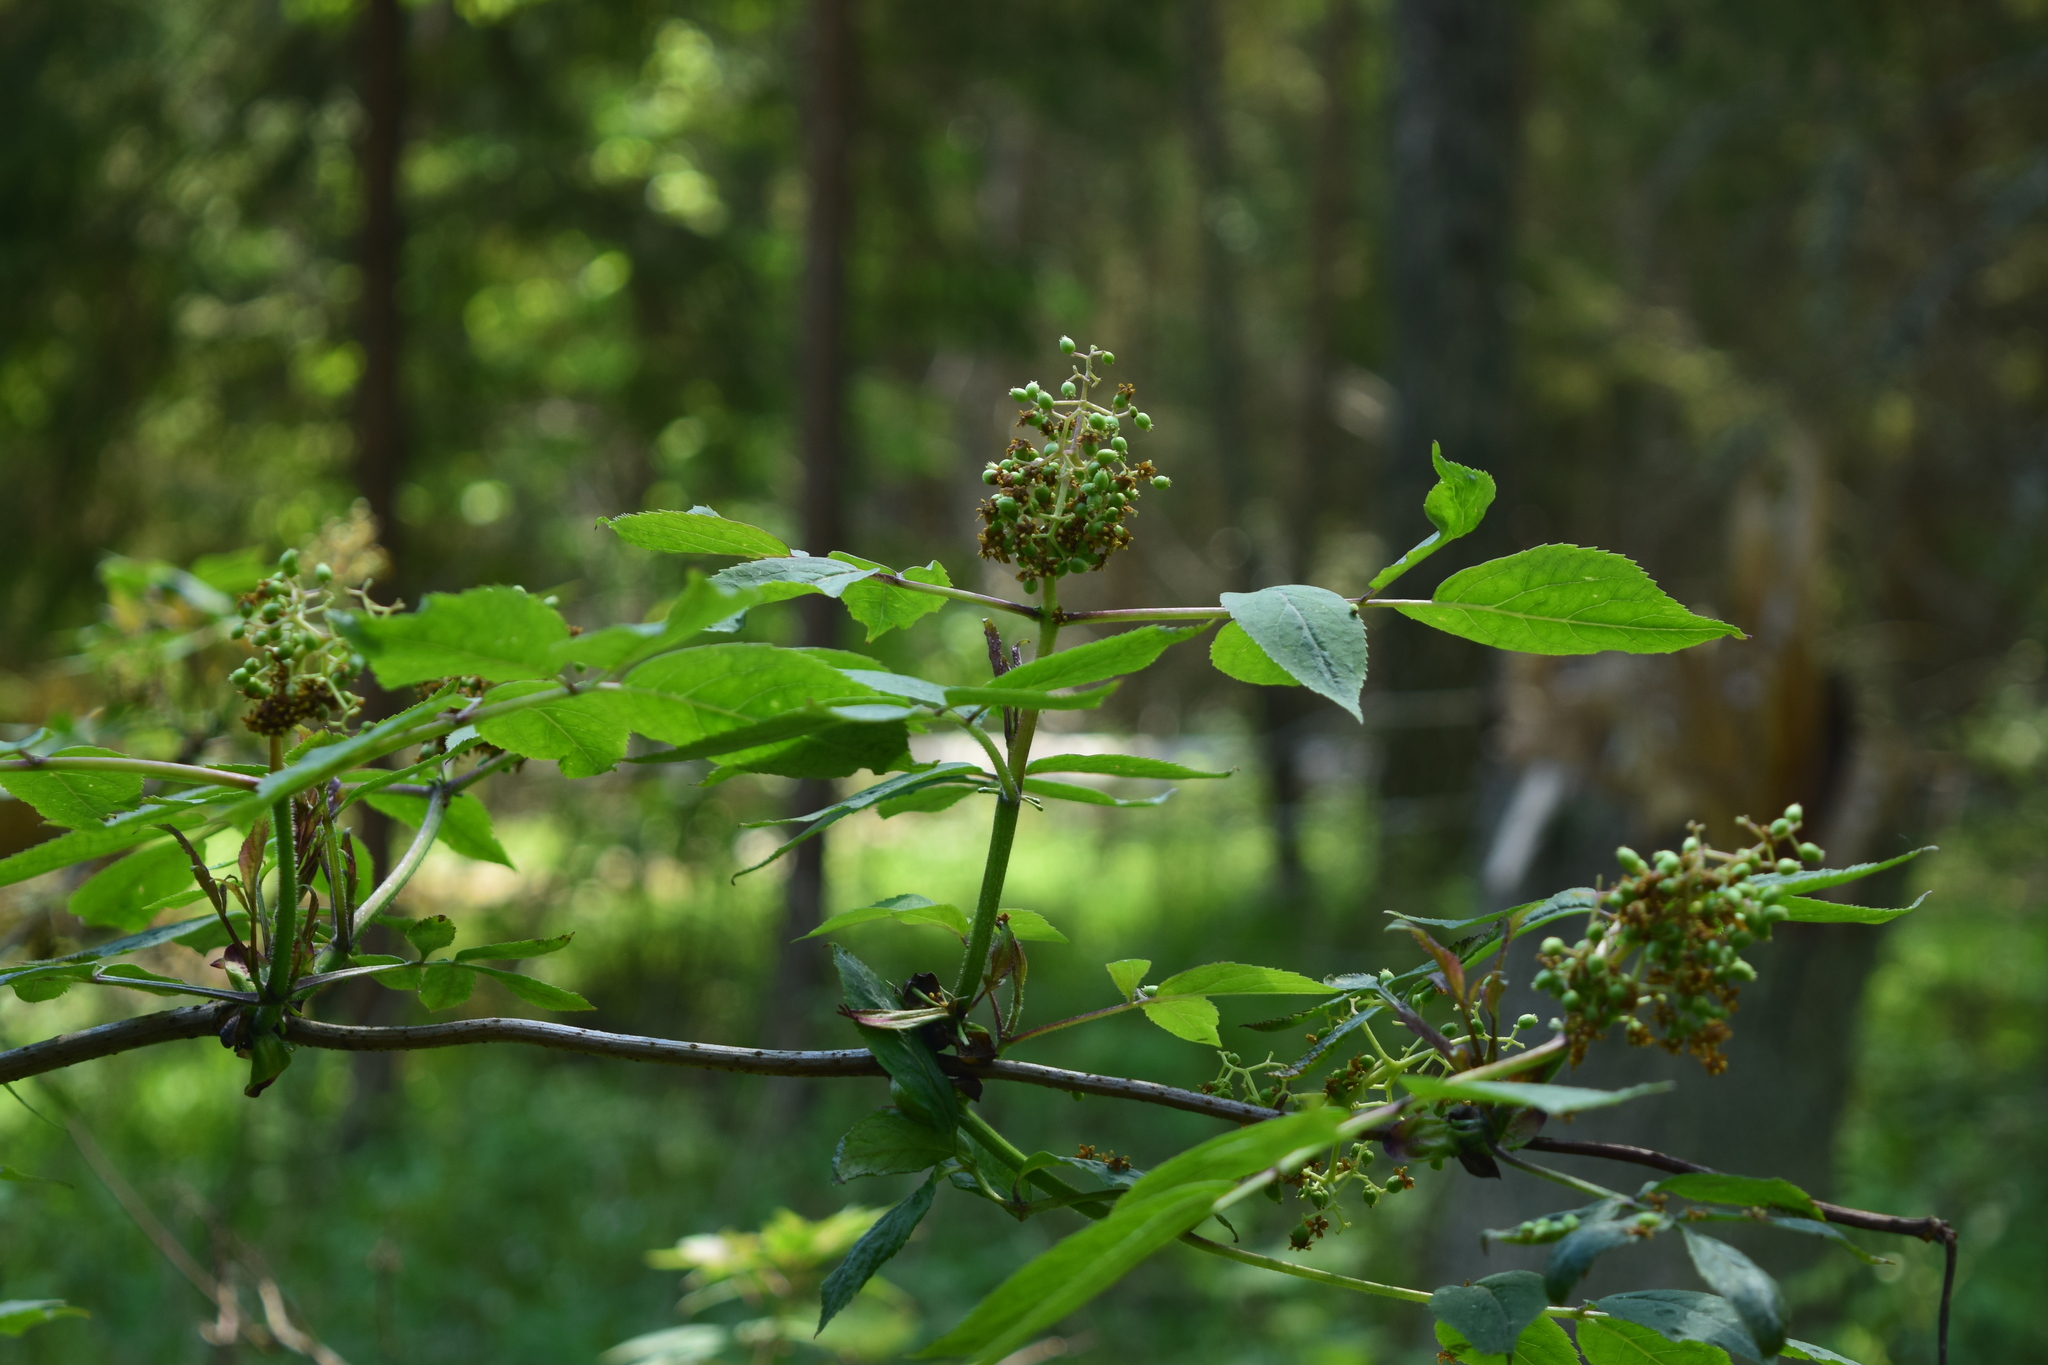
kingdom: Plantae
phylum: Tracheophyta
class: Magnoliopsida
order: Dipsacales
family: Viburnaceae
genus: Sambucus
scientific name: Sambucus racemosa
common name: Red-berried elder
